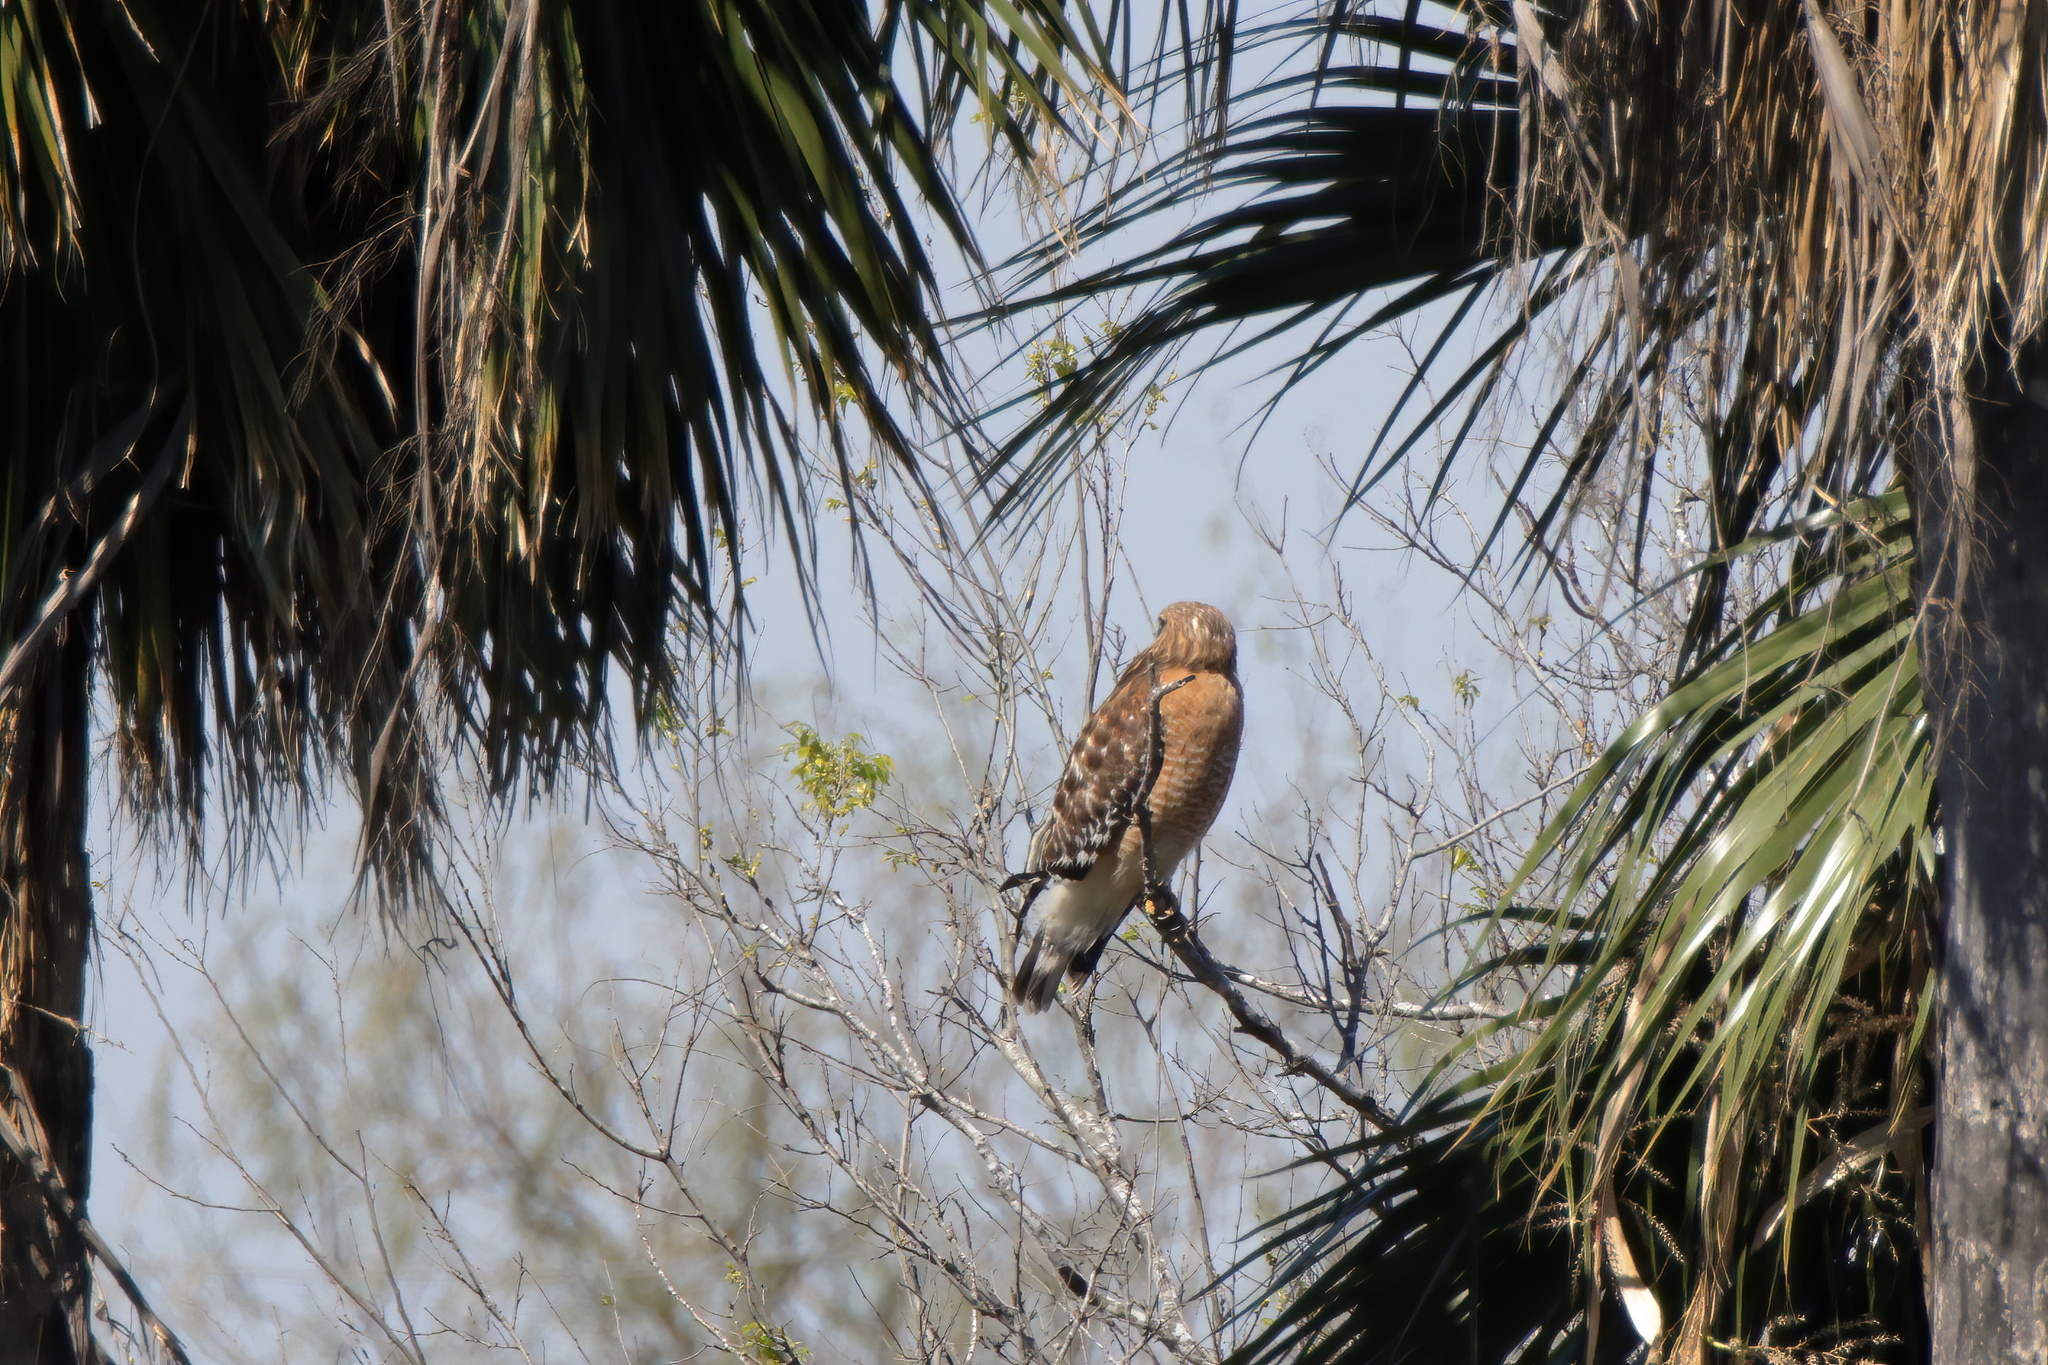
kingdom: Animalia
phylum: Chordata
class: Aves
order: Accipitriformes
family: Accipitridae
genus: Buteo
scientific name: Buteo lineatus
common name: Red-shouldered hawk
